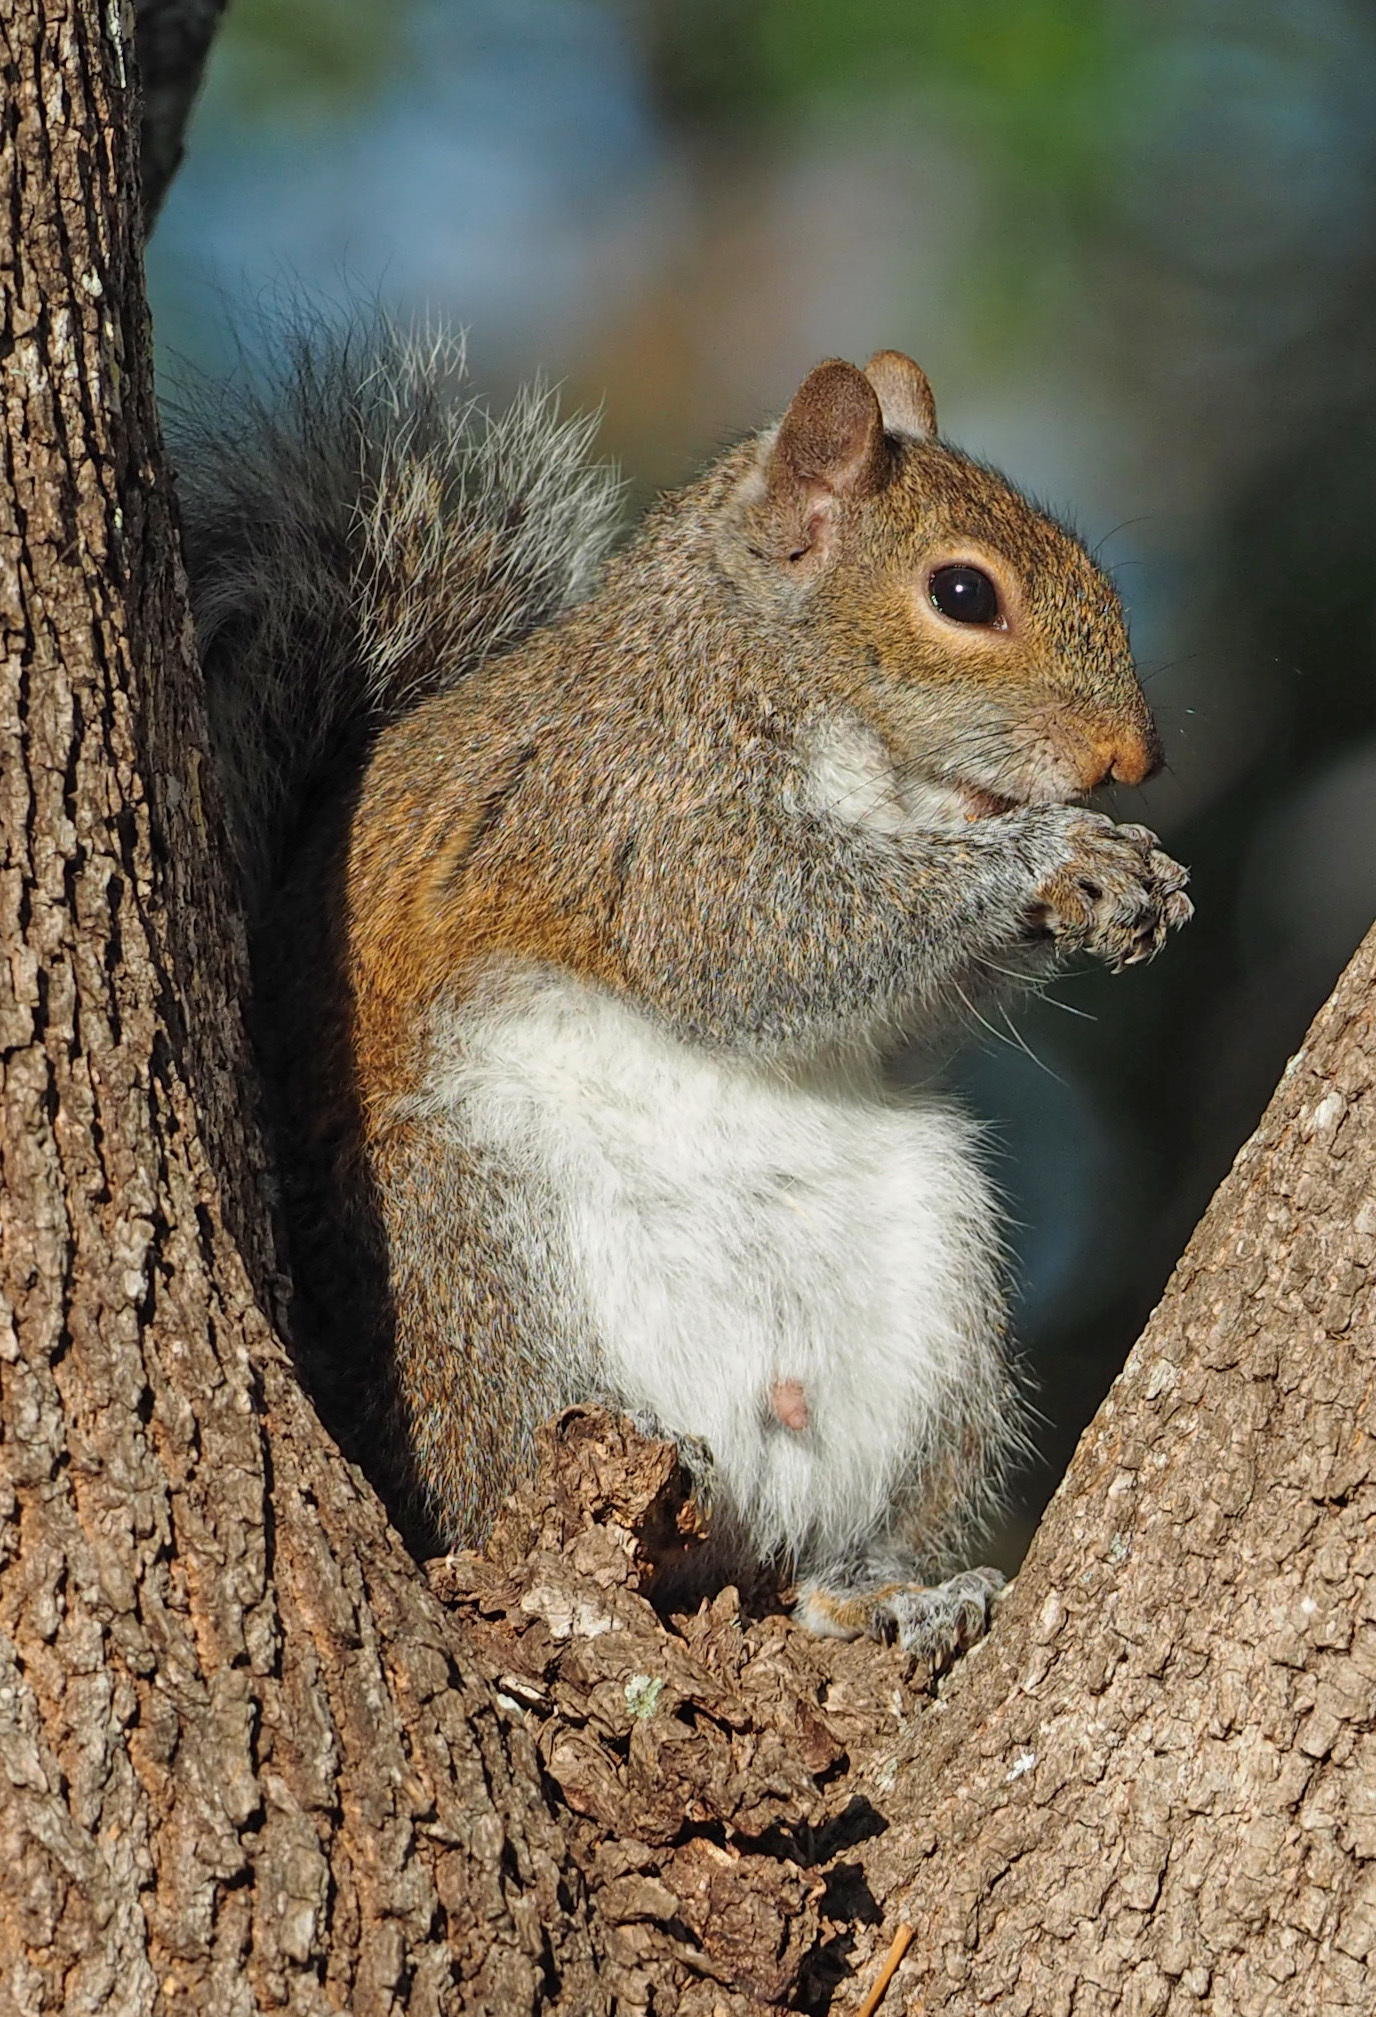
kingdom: Animalia
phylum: Chordata
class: Mammalia
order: Rodentia
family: Sciuridae
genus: Sciurus
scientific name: Sciurus carolinensis
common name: Eastern gray squirrel
